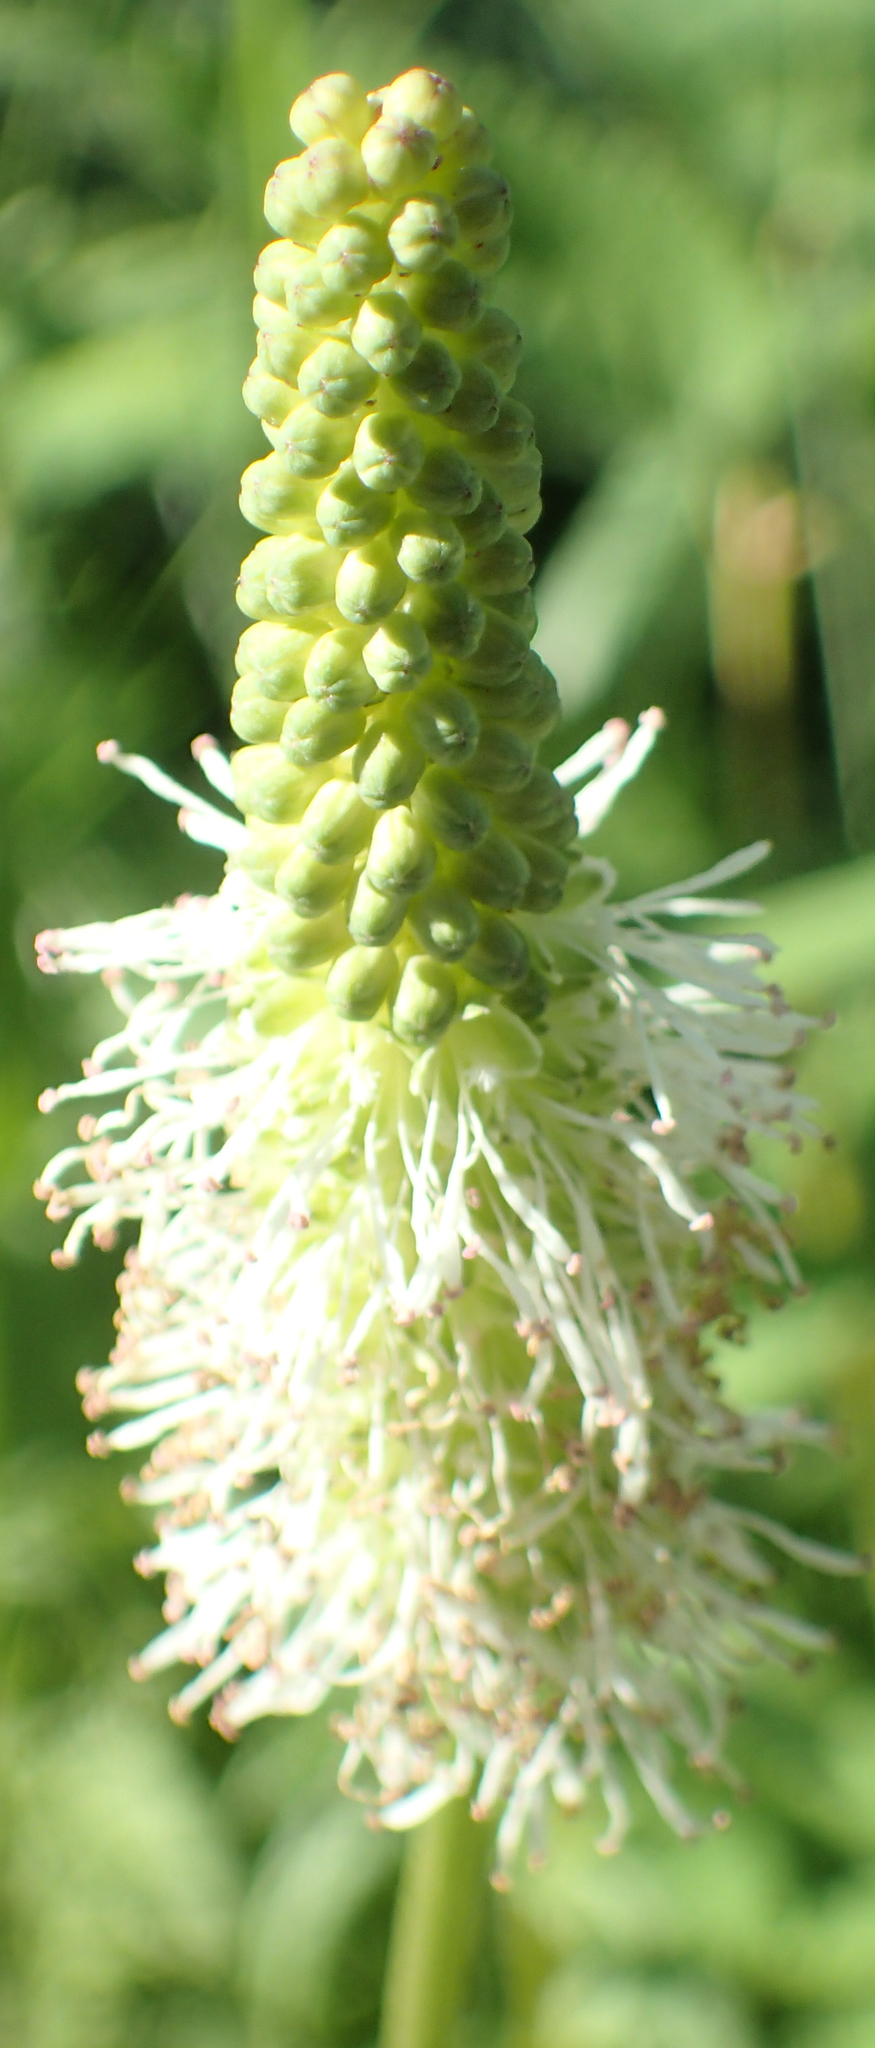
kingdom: Plantae
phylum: Tracheophyta
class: Magnoliopsida
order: Rosales
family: Rosaceae
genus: Sanguisorba
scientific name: Sanguisorba stipulata
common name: Sitka burnet
